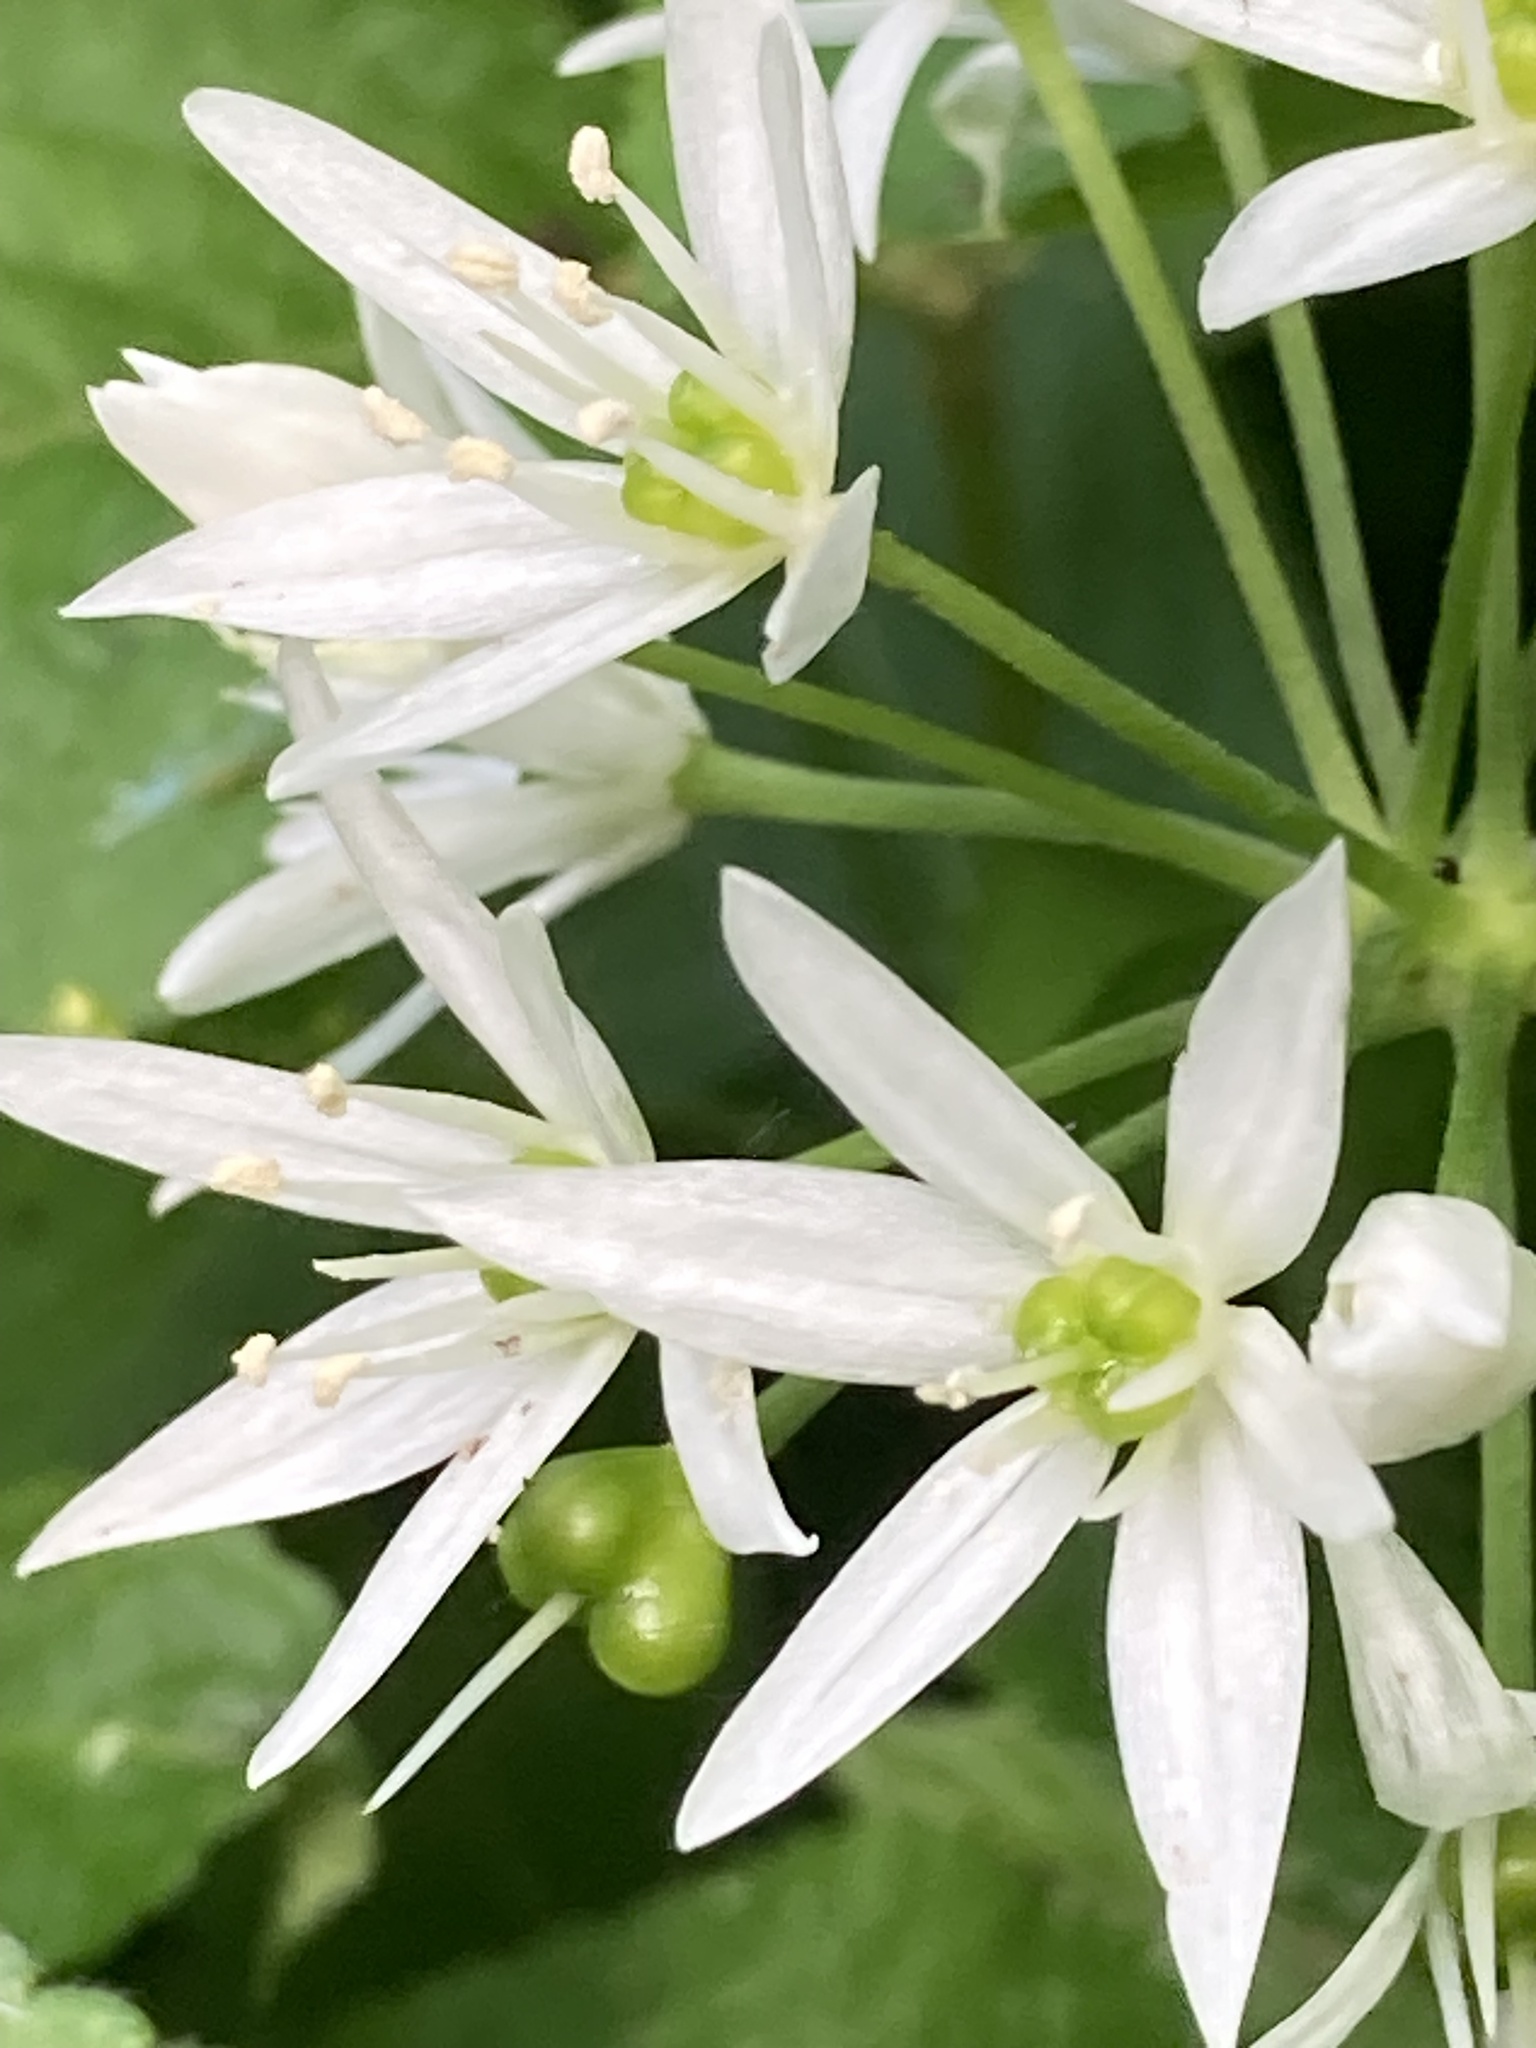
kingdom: Plantae
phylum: Tracheophyta
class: Liliopsida
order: Asparagales
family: Amaryllidaceae
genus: Allium
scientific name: Allium ursinum
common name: Ramsons
